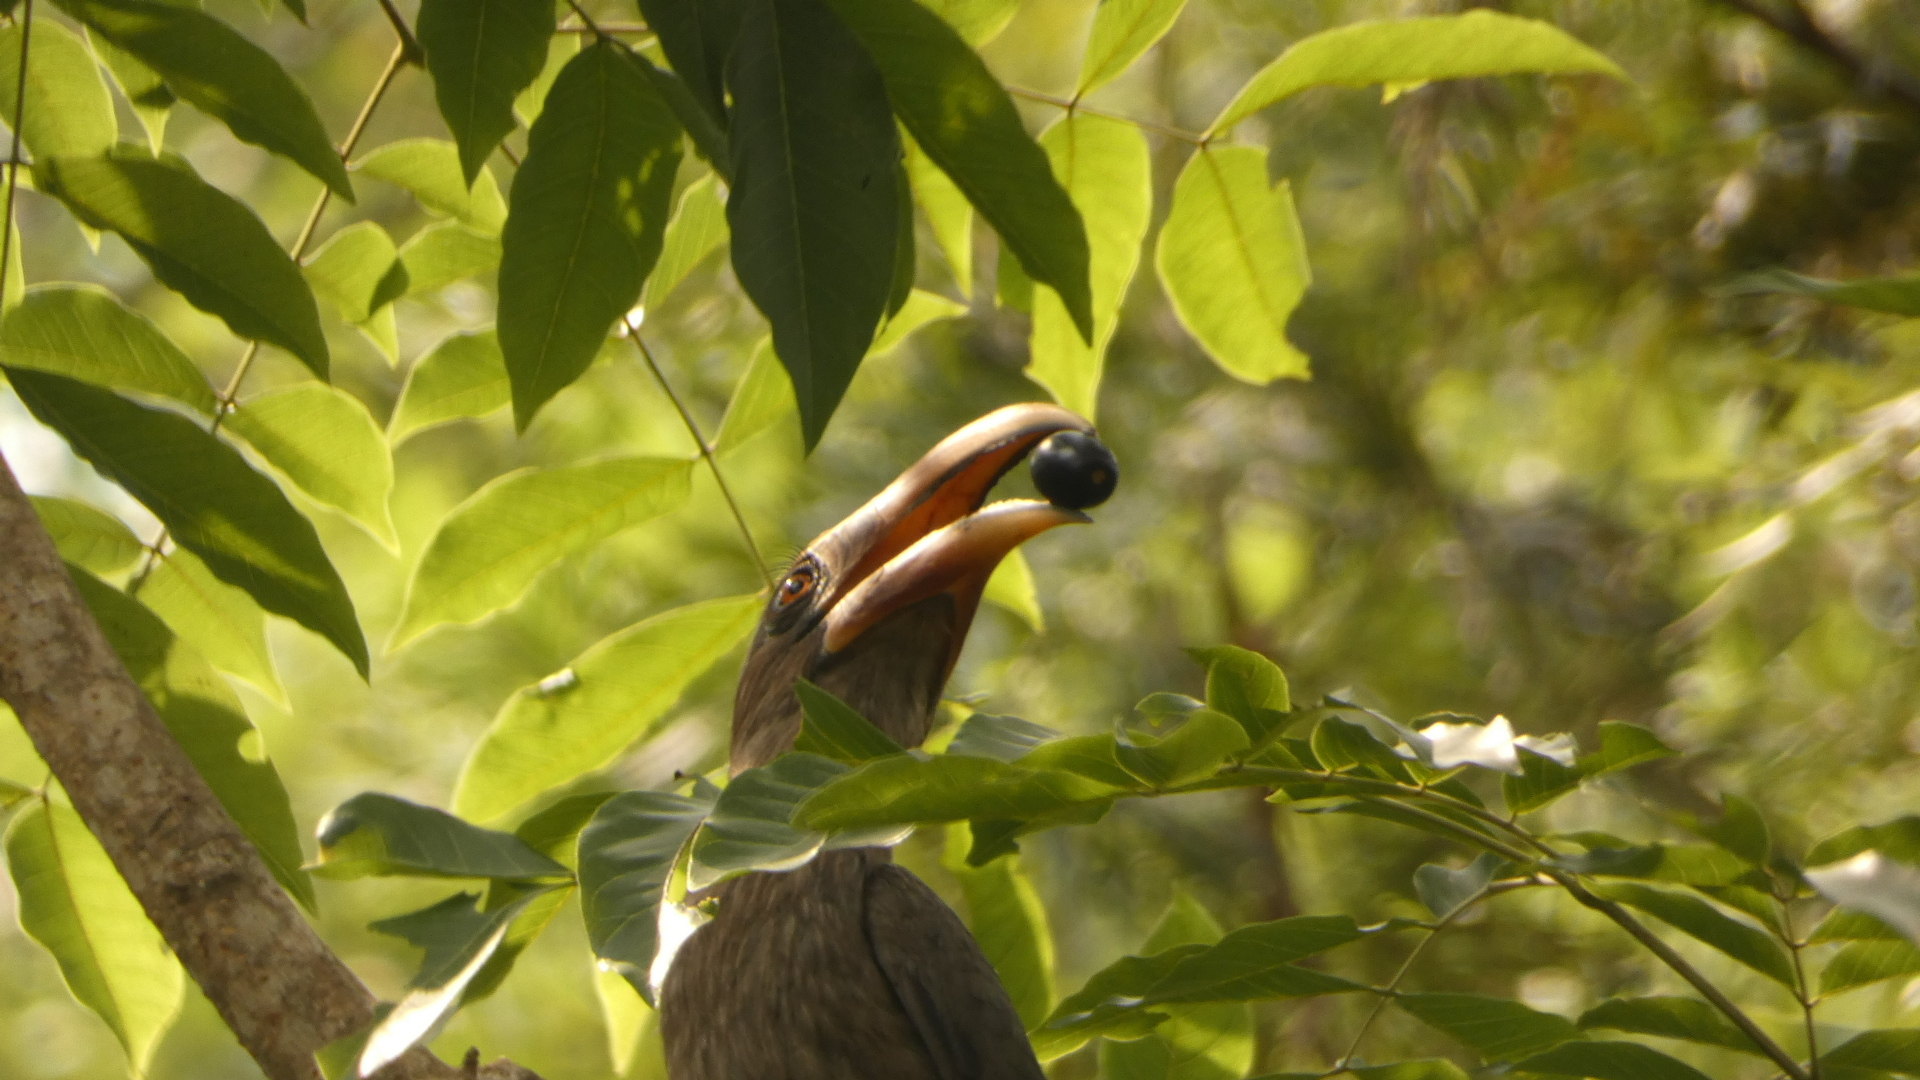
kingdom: Animalia
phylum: Chordata
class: Aves
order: Bucerotiformes
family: Bucerotidae
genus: Ocyceros
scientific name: Ocyceros griseus
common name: Malabar grey hornbill
